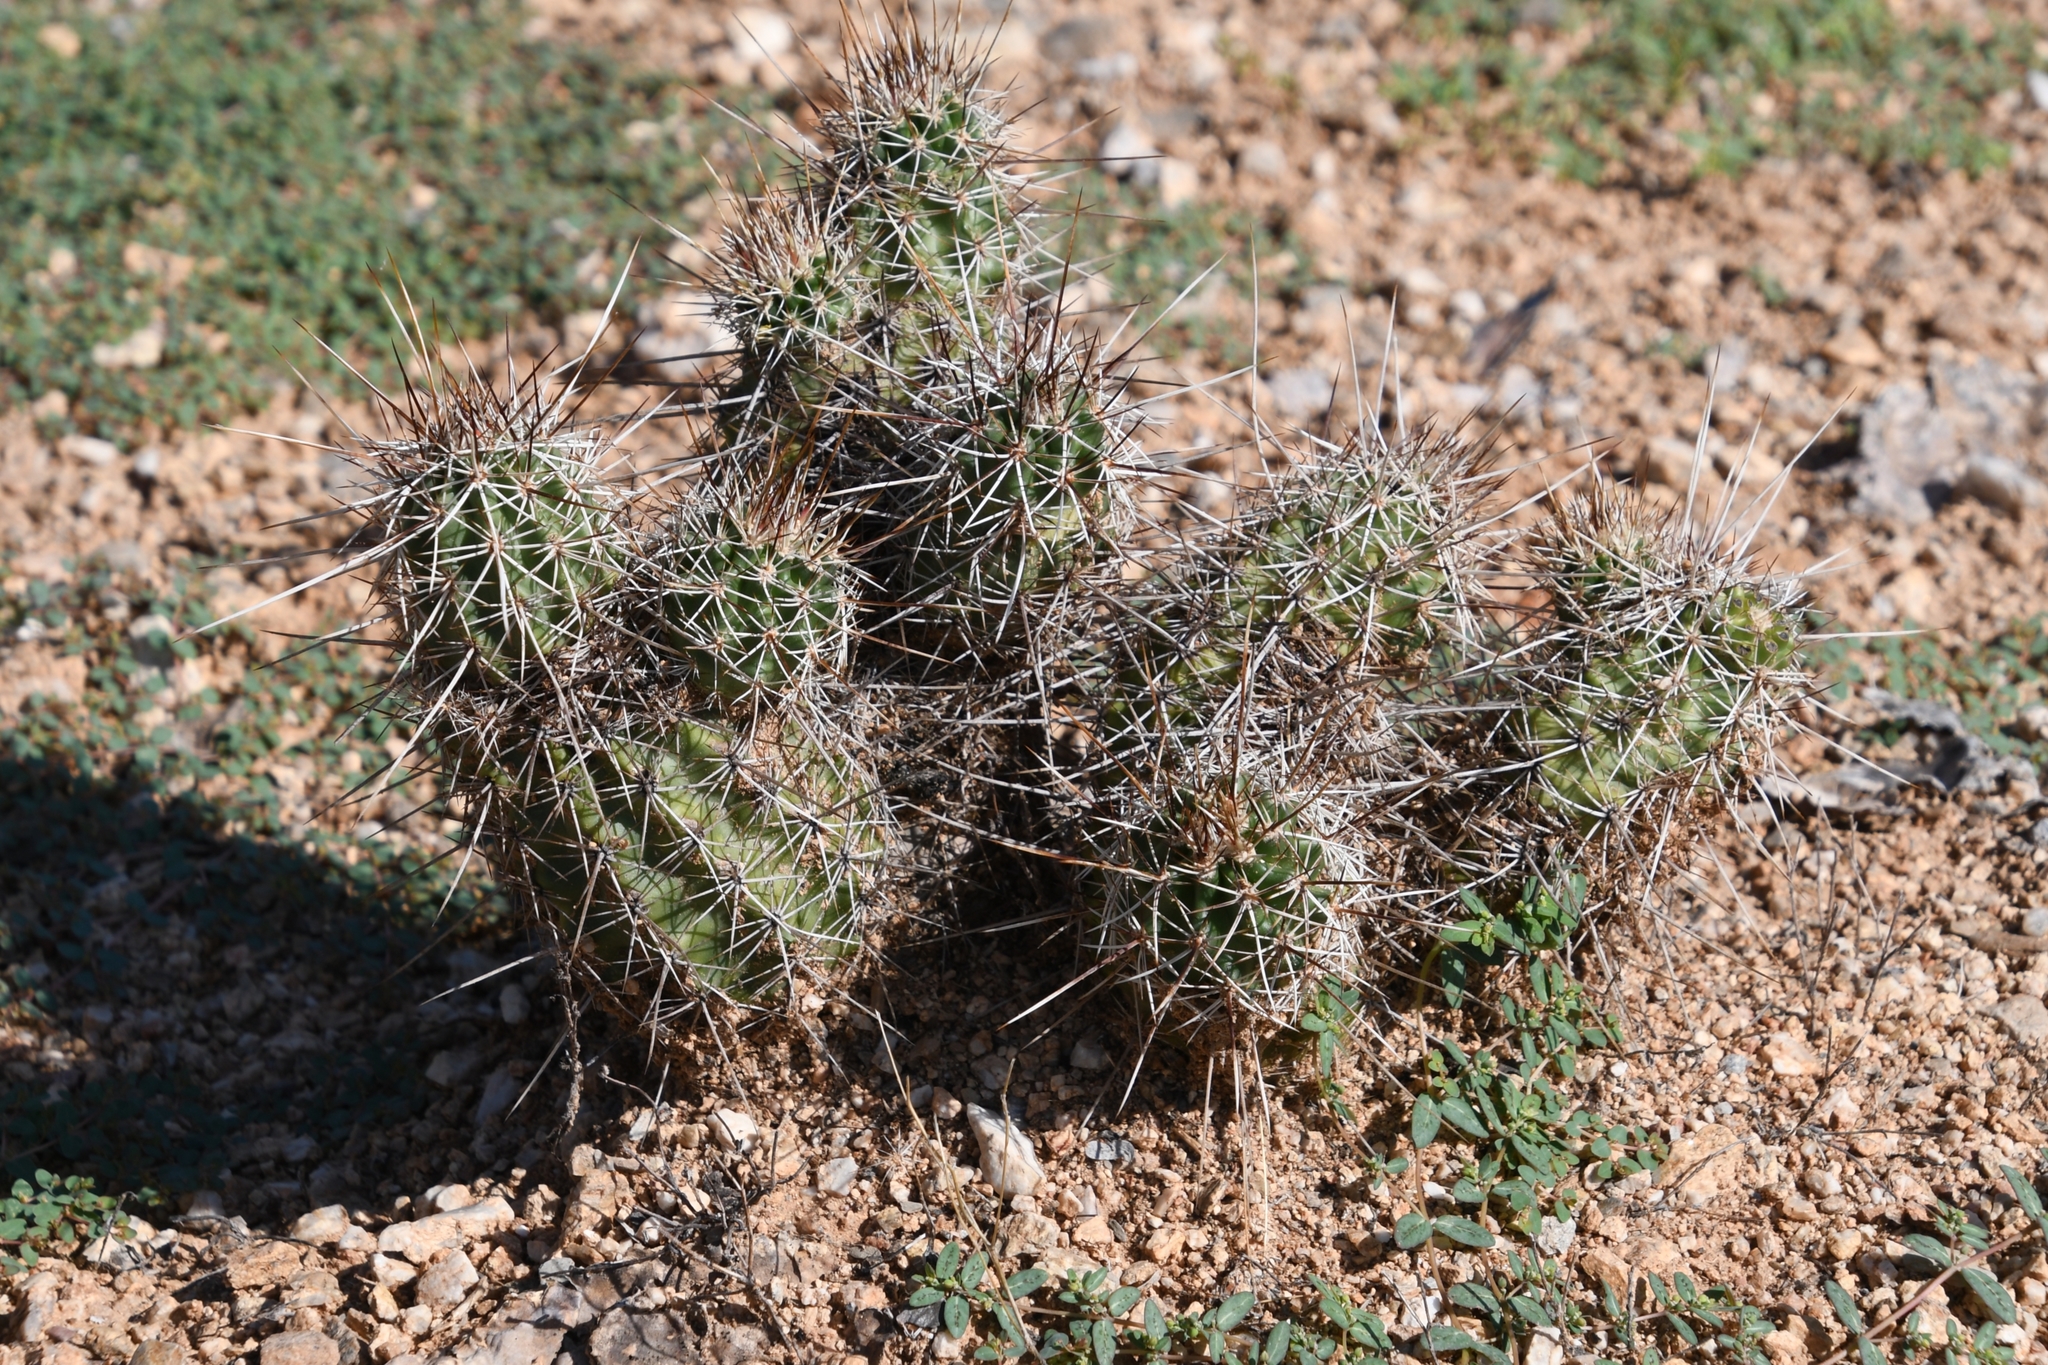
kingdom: Plantae
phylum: Tracheophyta
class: Magnoliopsida
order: Caryophyllales
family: Cactaceae
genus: Echinocereus
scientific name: Echinocereus fasciculatus
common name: Bundle hedgehog
